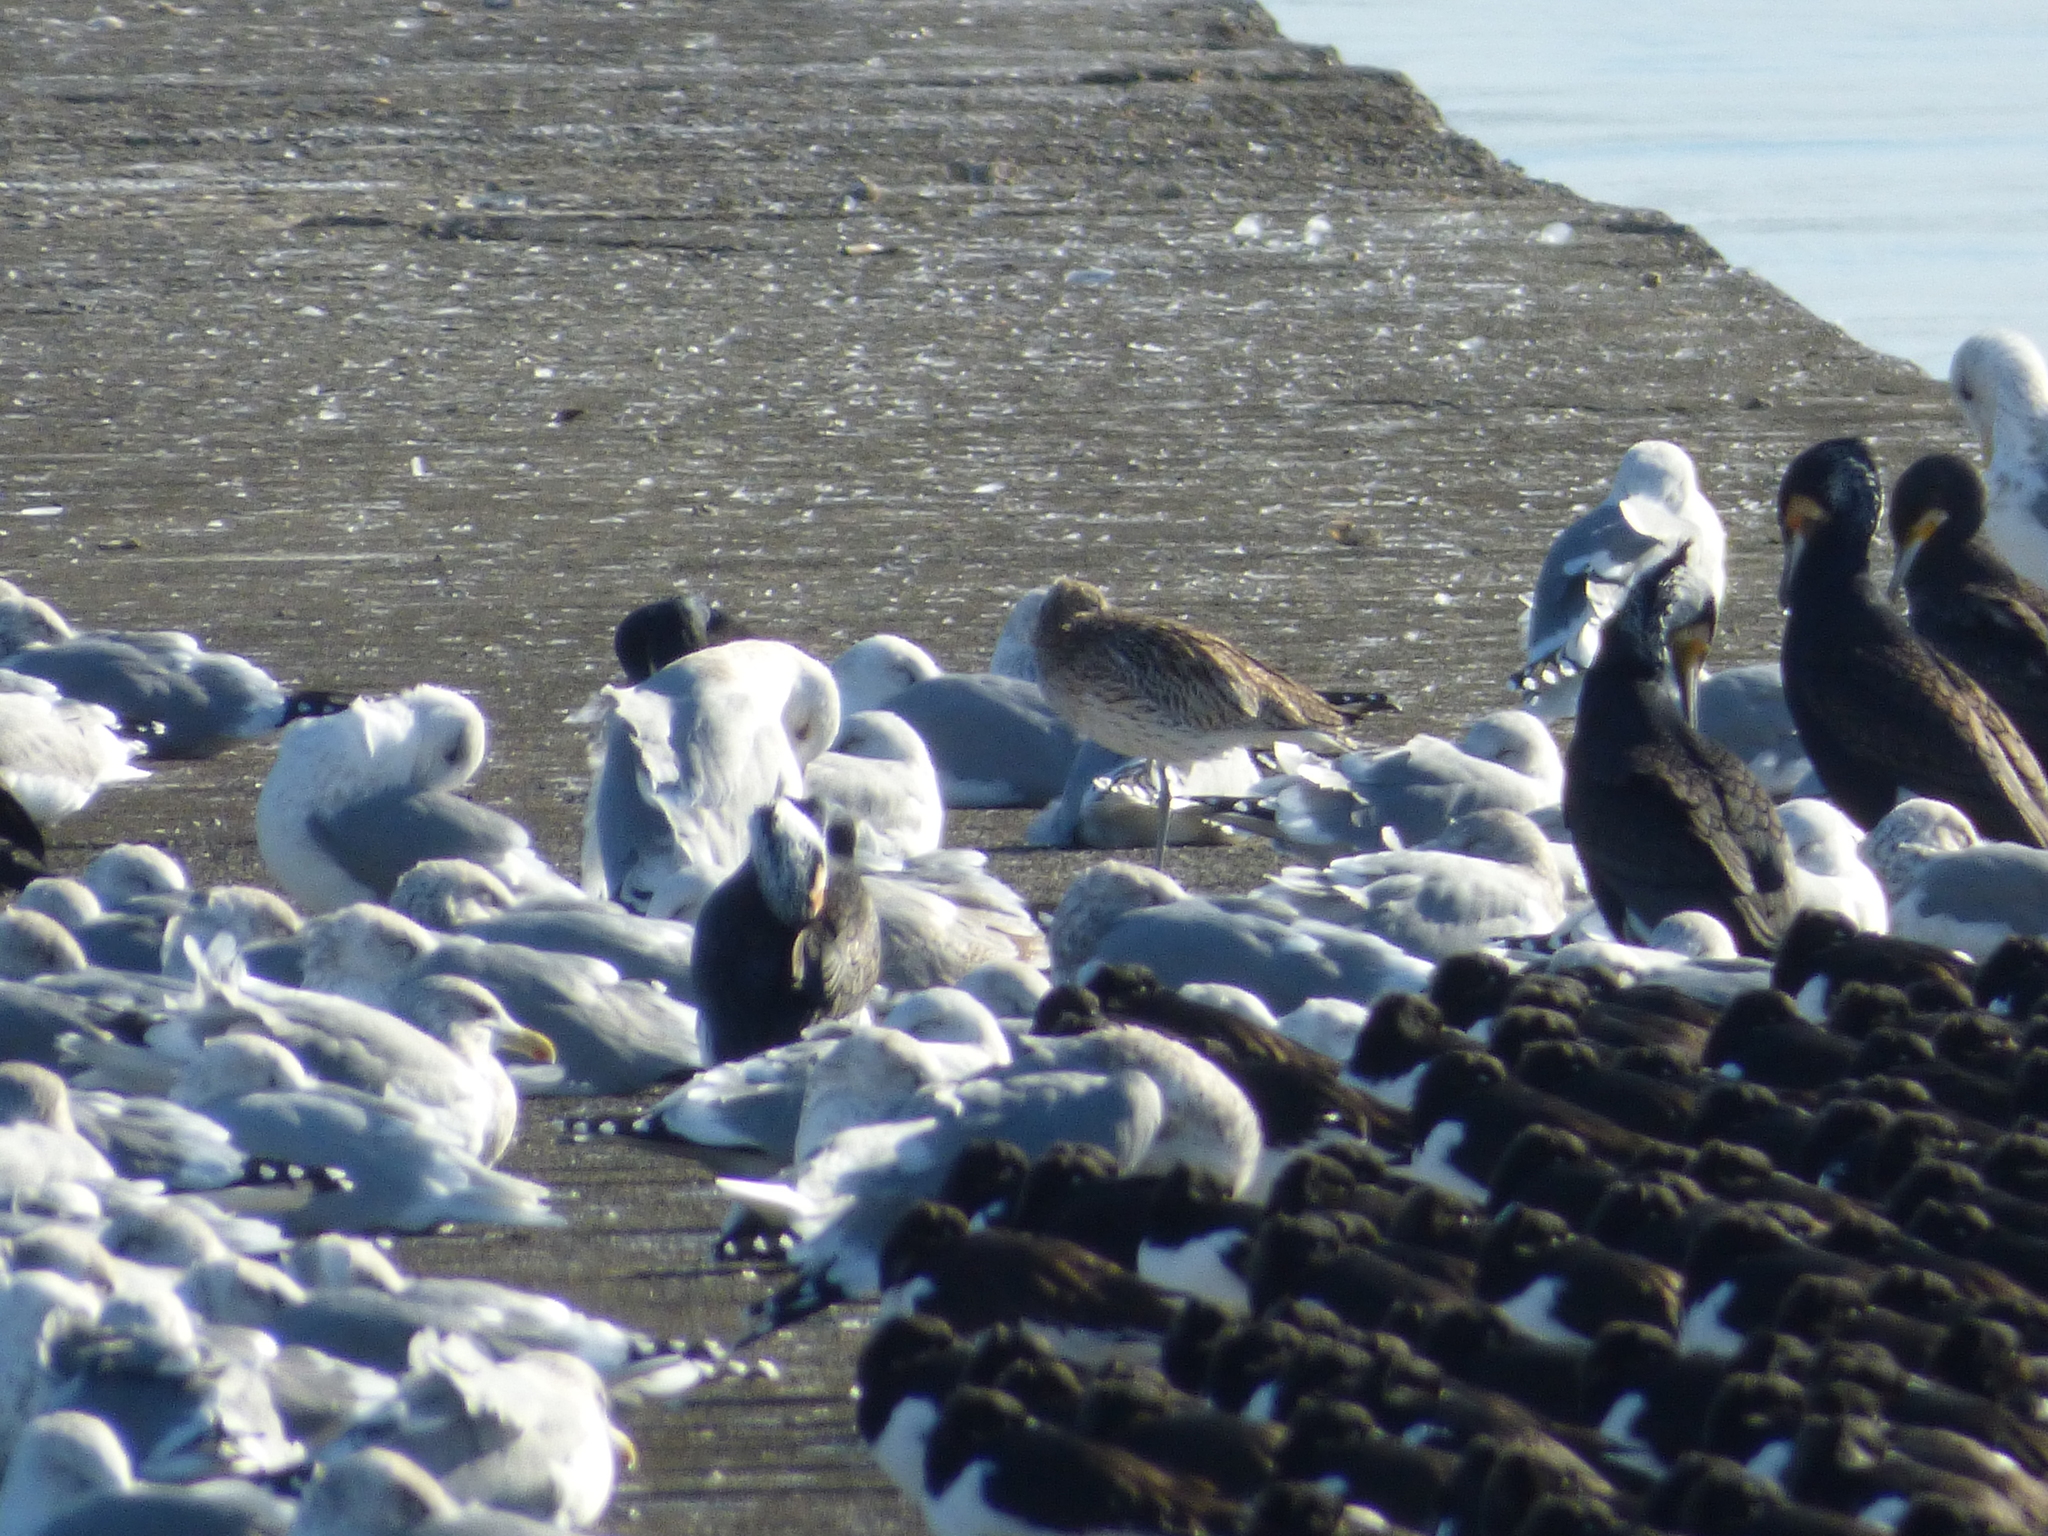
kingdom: Animalia
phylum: Chordata
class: Aves
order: Charadriiformes
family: Scolopacidae
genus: Numenius
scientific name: Numenius arquata
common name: Eurasian curlew
